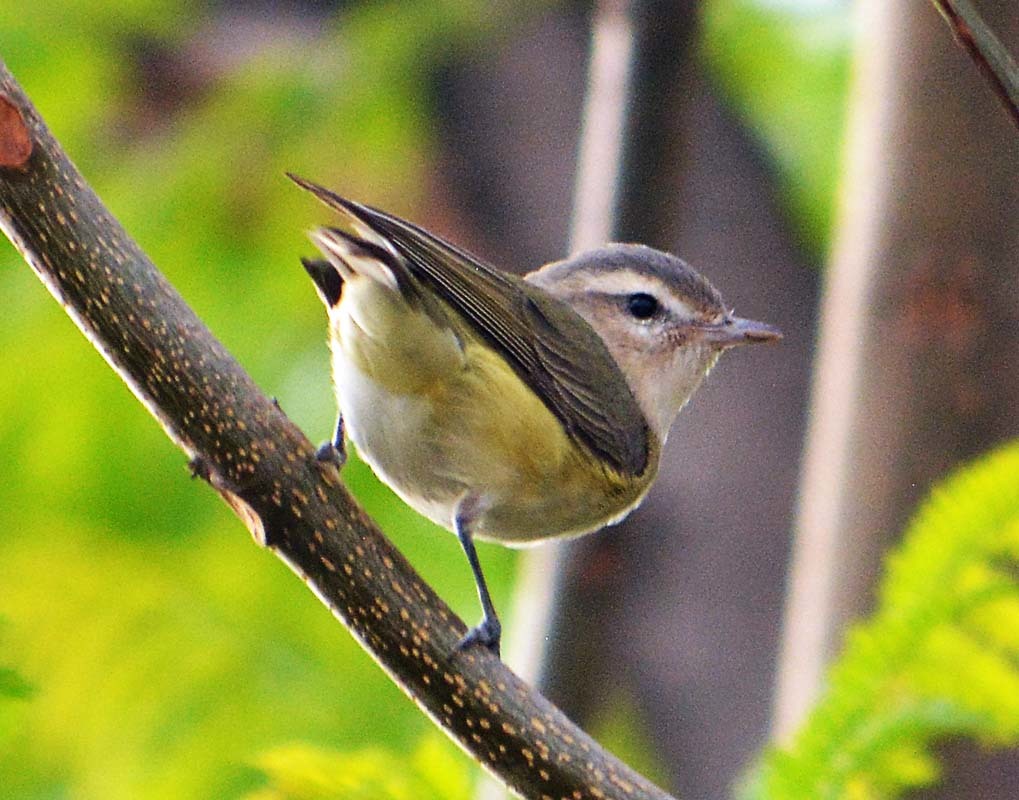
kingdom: Animalia
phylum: Chordata
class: Aves
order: Passeriformes
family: Vireonidae
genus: Vireo
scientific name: Vireo philadelphicus
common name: Philadelphia vireo
